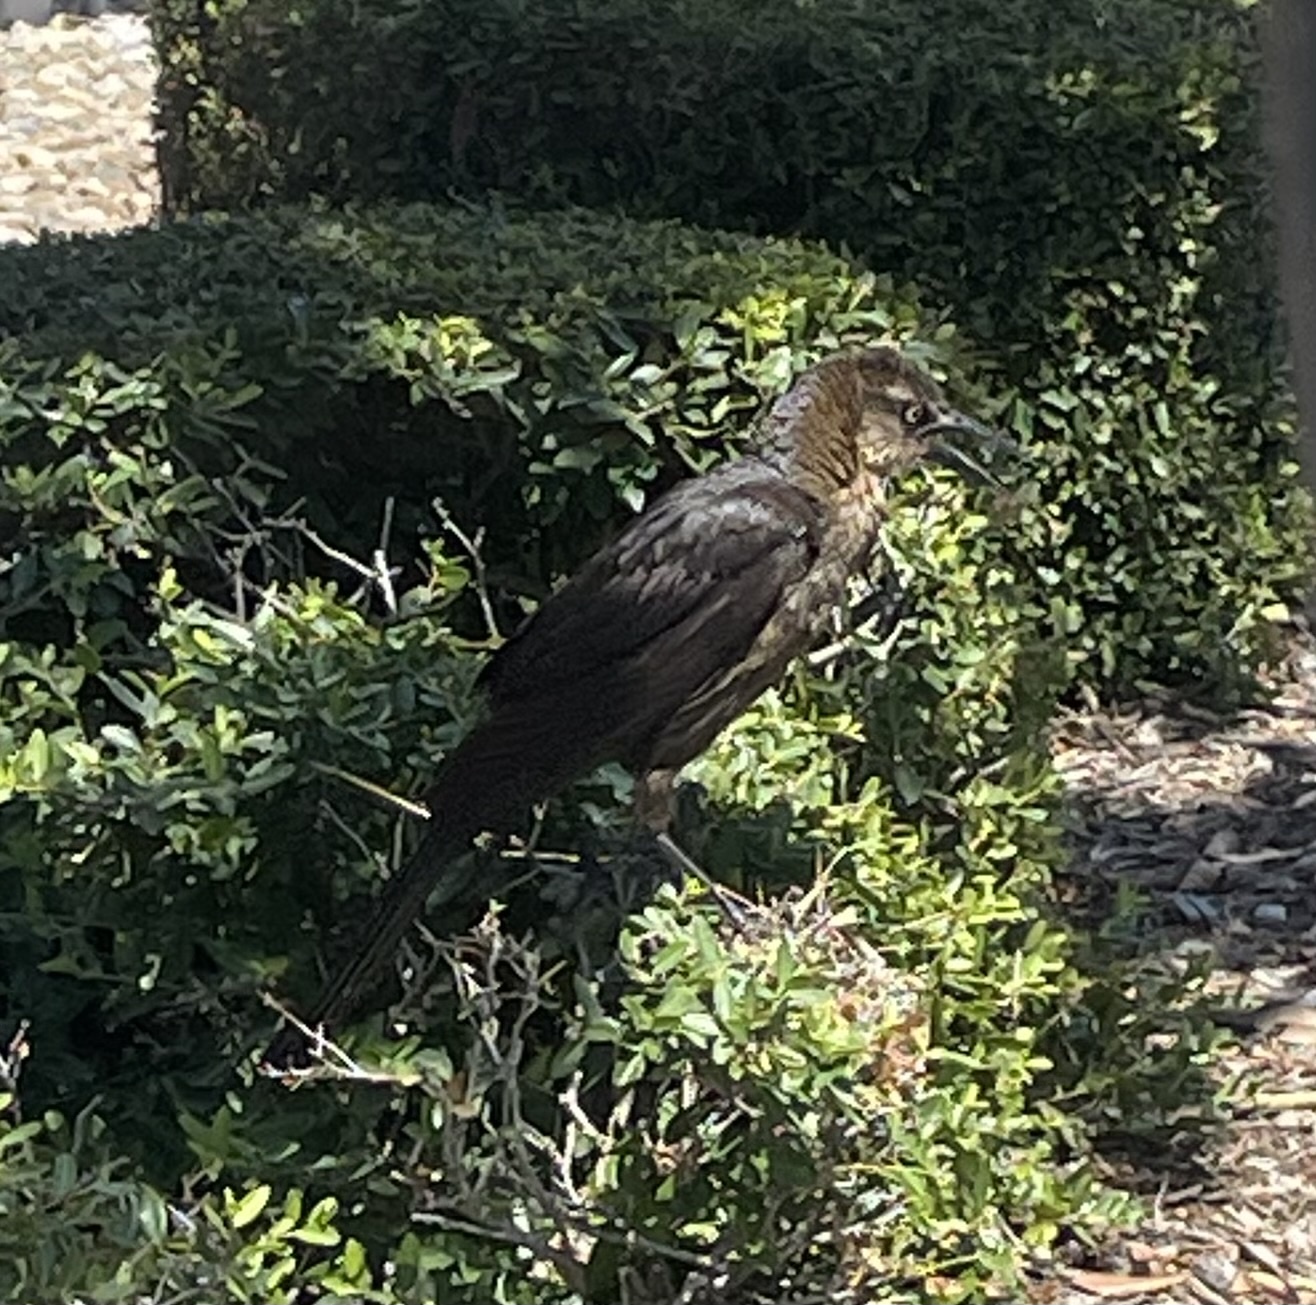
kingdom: Animalia
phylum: Chordata
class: Aves
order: Passeriformes
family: Icteridae
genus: Quiscalus
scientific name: Quiscalus mexicanus
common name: Great-tailed grackle
